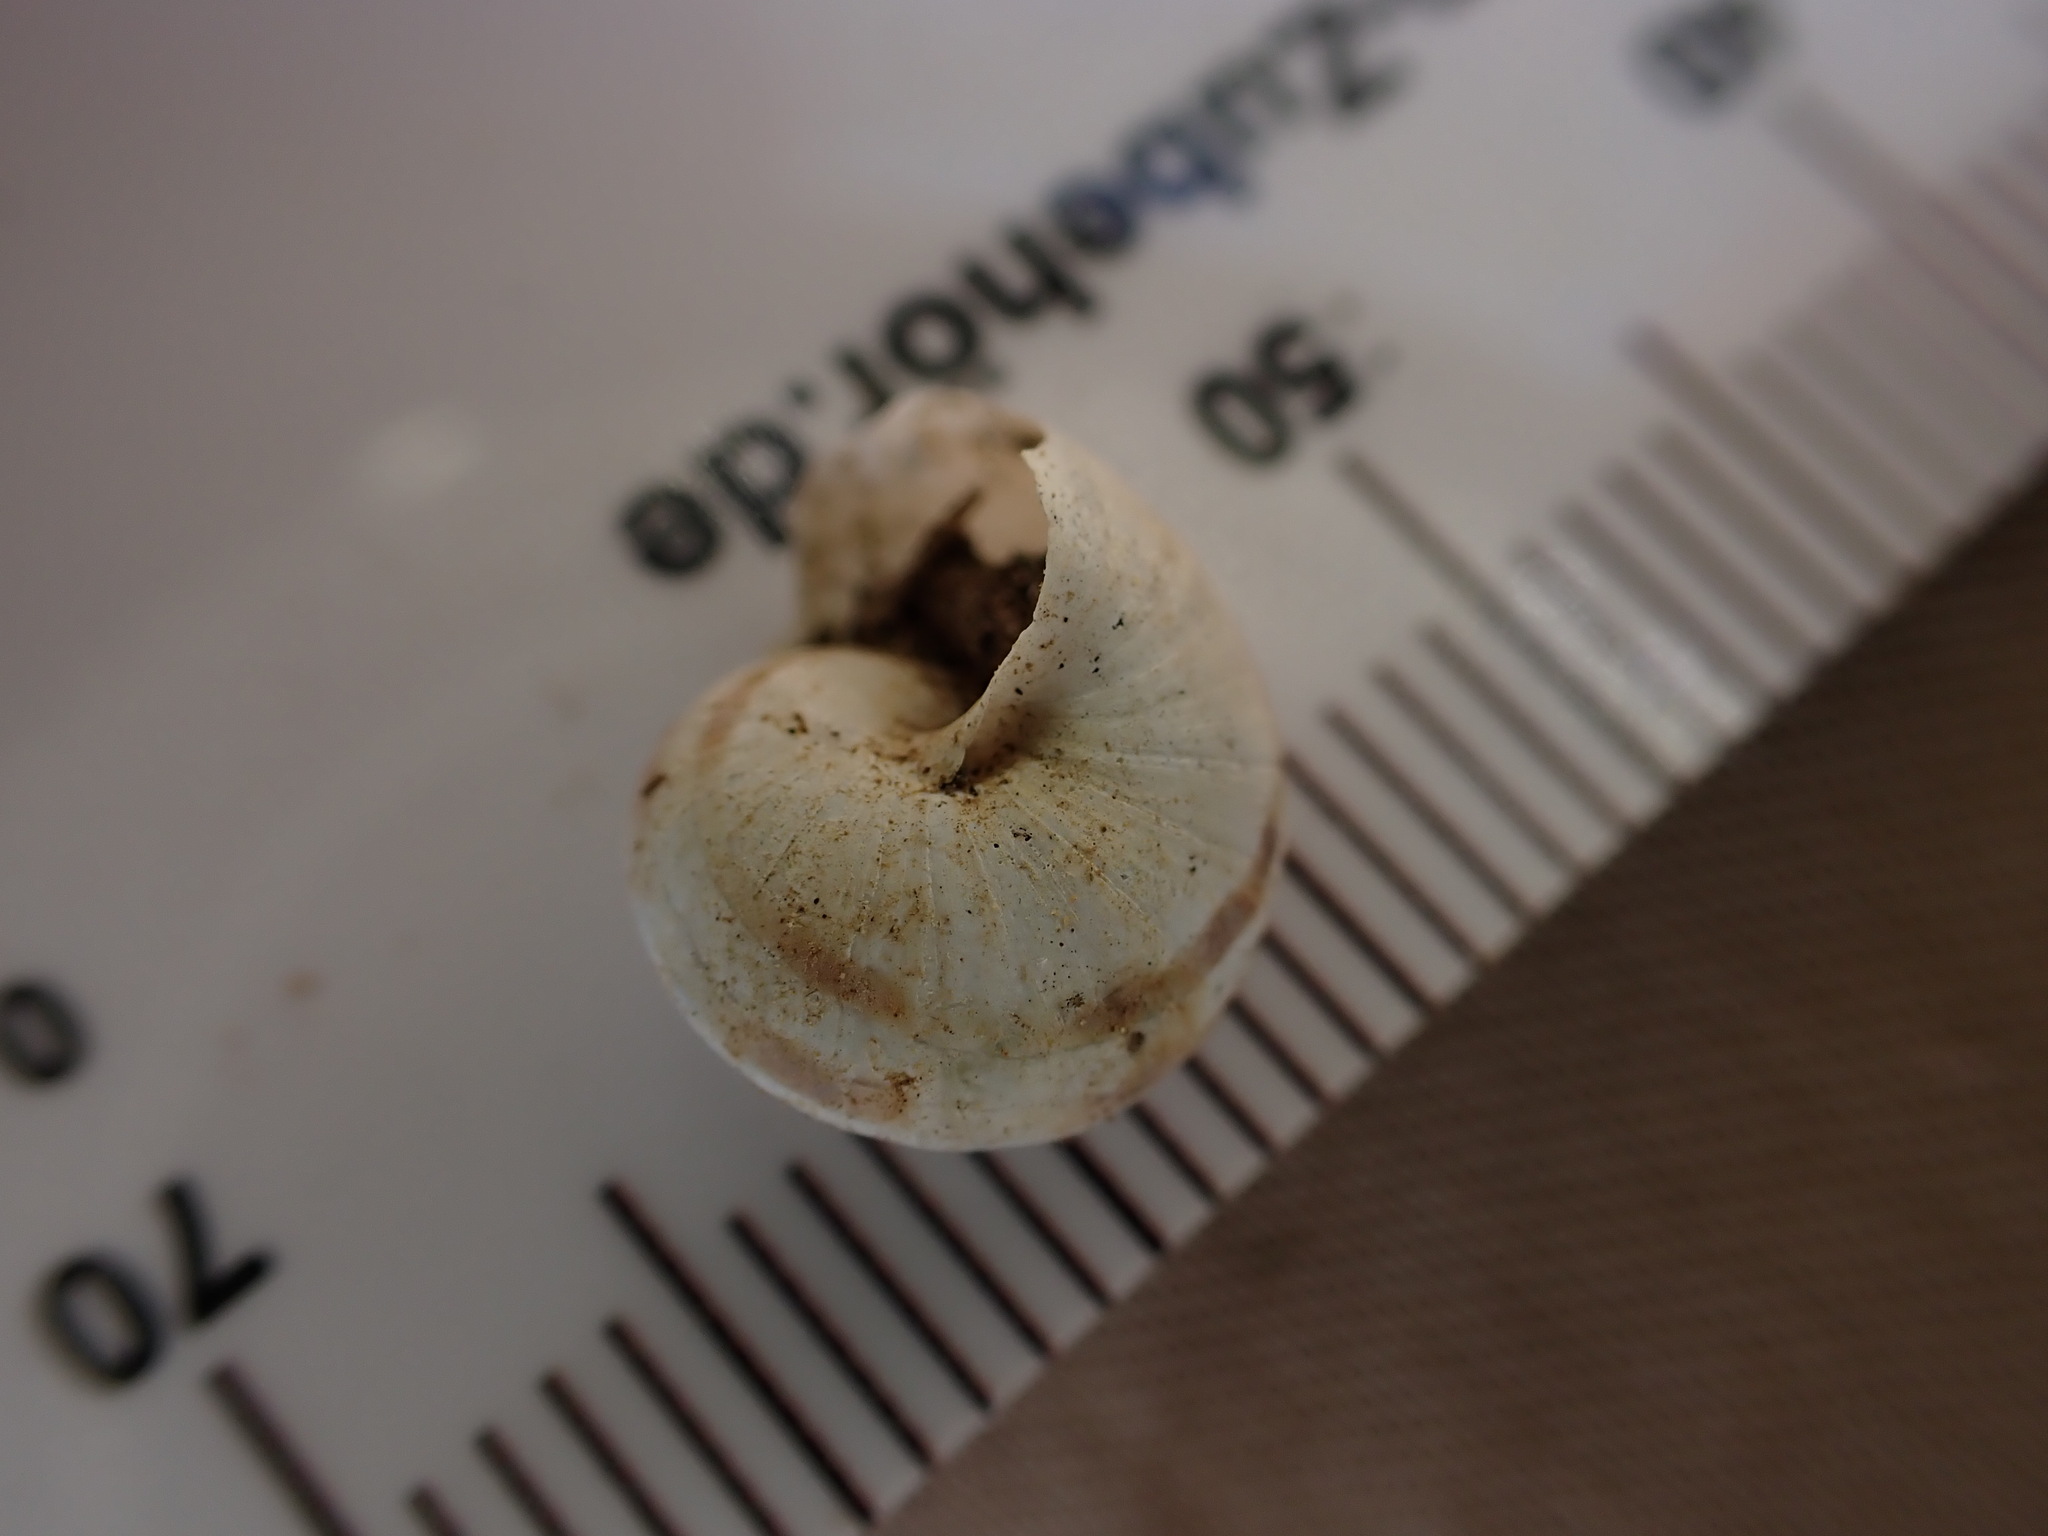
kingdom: Animalia
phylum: Mollusca
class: Gastropoda
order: Stylommatophora
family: Helicidae
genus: Eobania
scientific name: Eobania vermiculata
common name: Chocolateband snail
